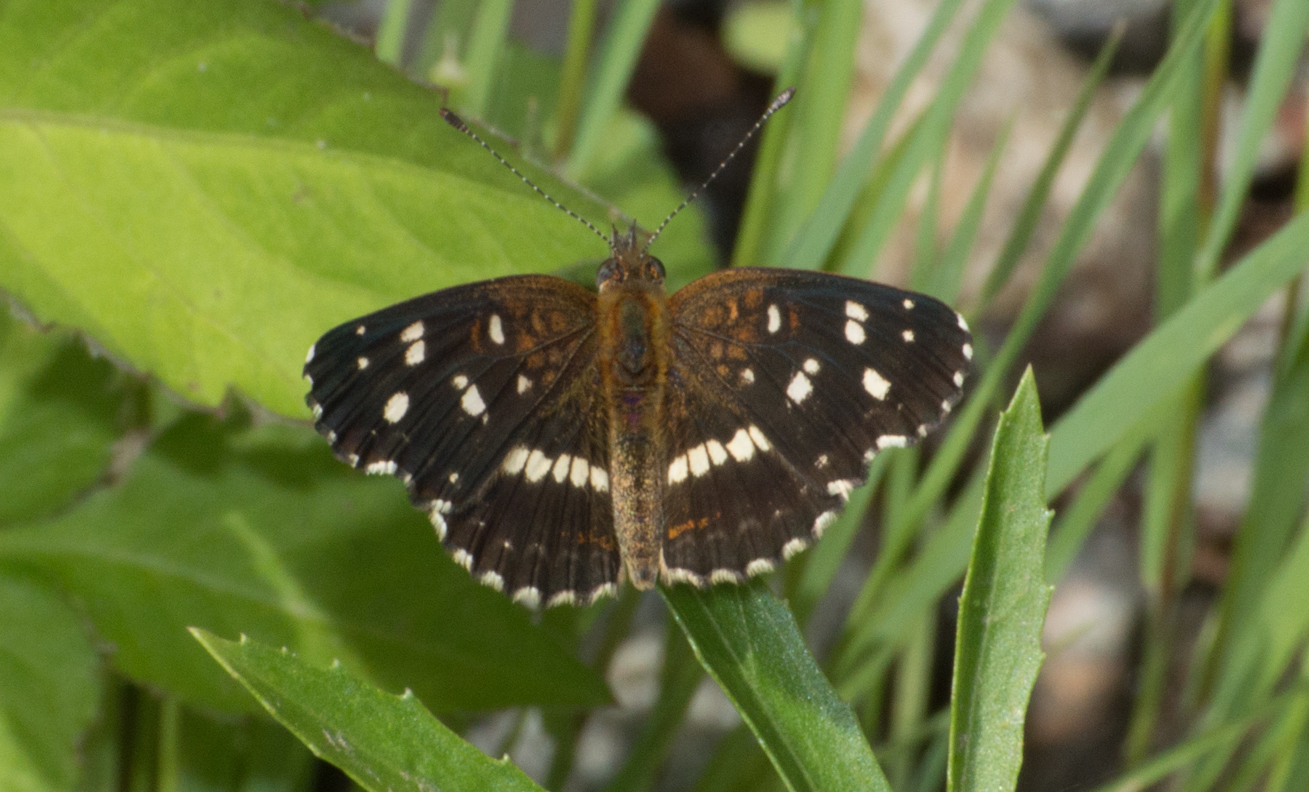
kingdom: Animalia
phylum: Arthropoda
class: Insecta
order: Lepidoptera
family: Nymphalidae
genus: Ortilia
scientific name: Ortilia ithra
